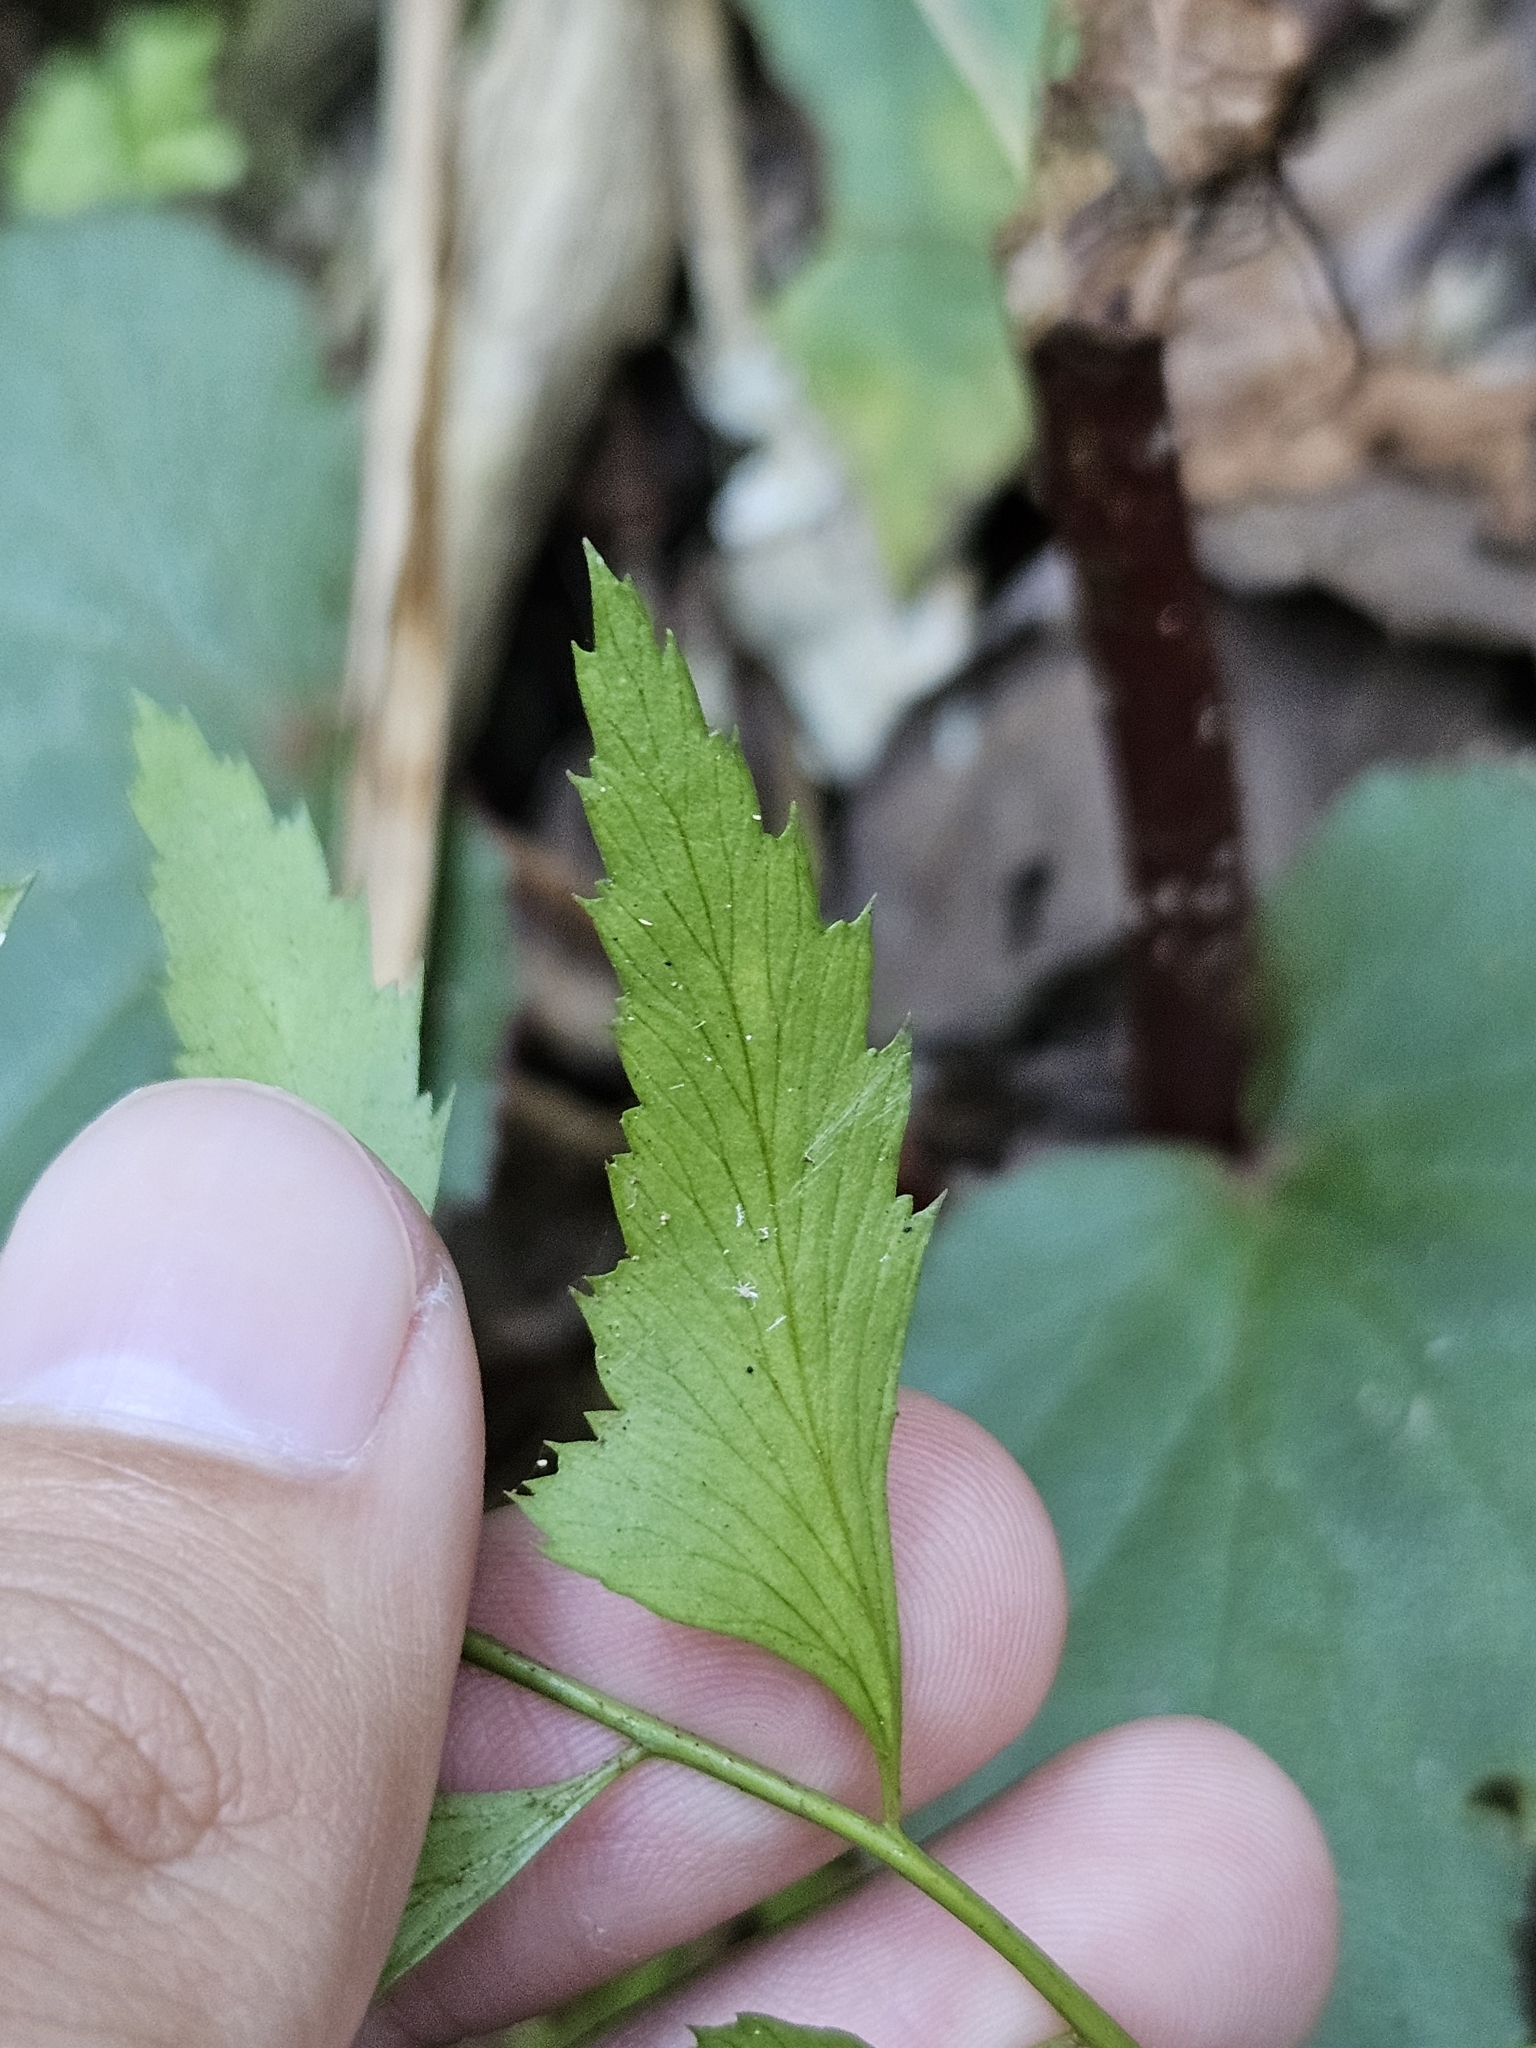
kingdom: Plantae
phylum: Tracheophyta
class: Polypodiopsida
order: Polypodiales
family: Dryopteridaceae
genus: Polystichum
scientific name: Polystichum formosanum
